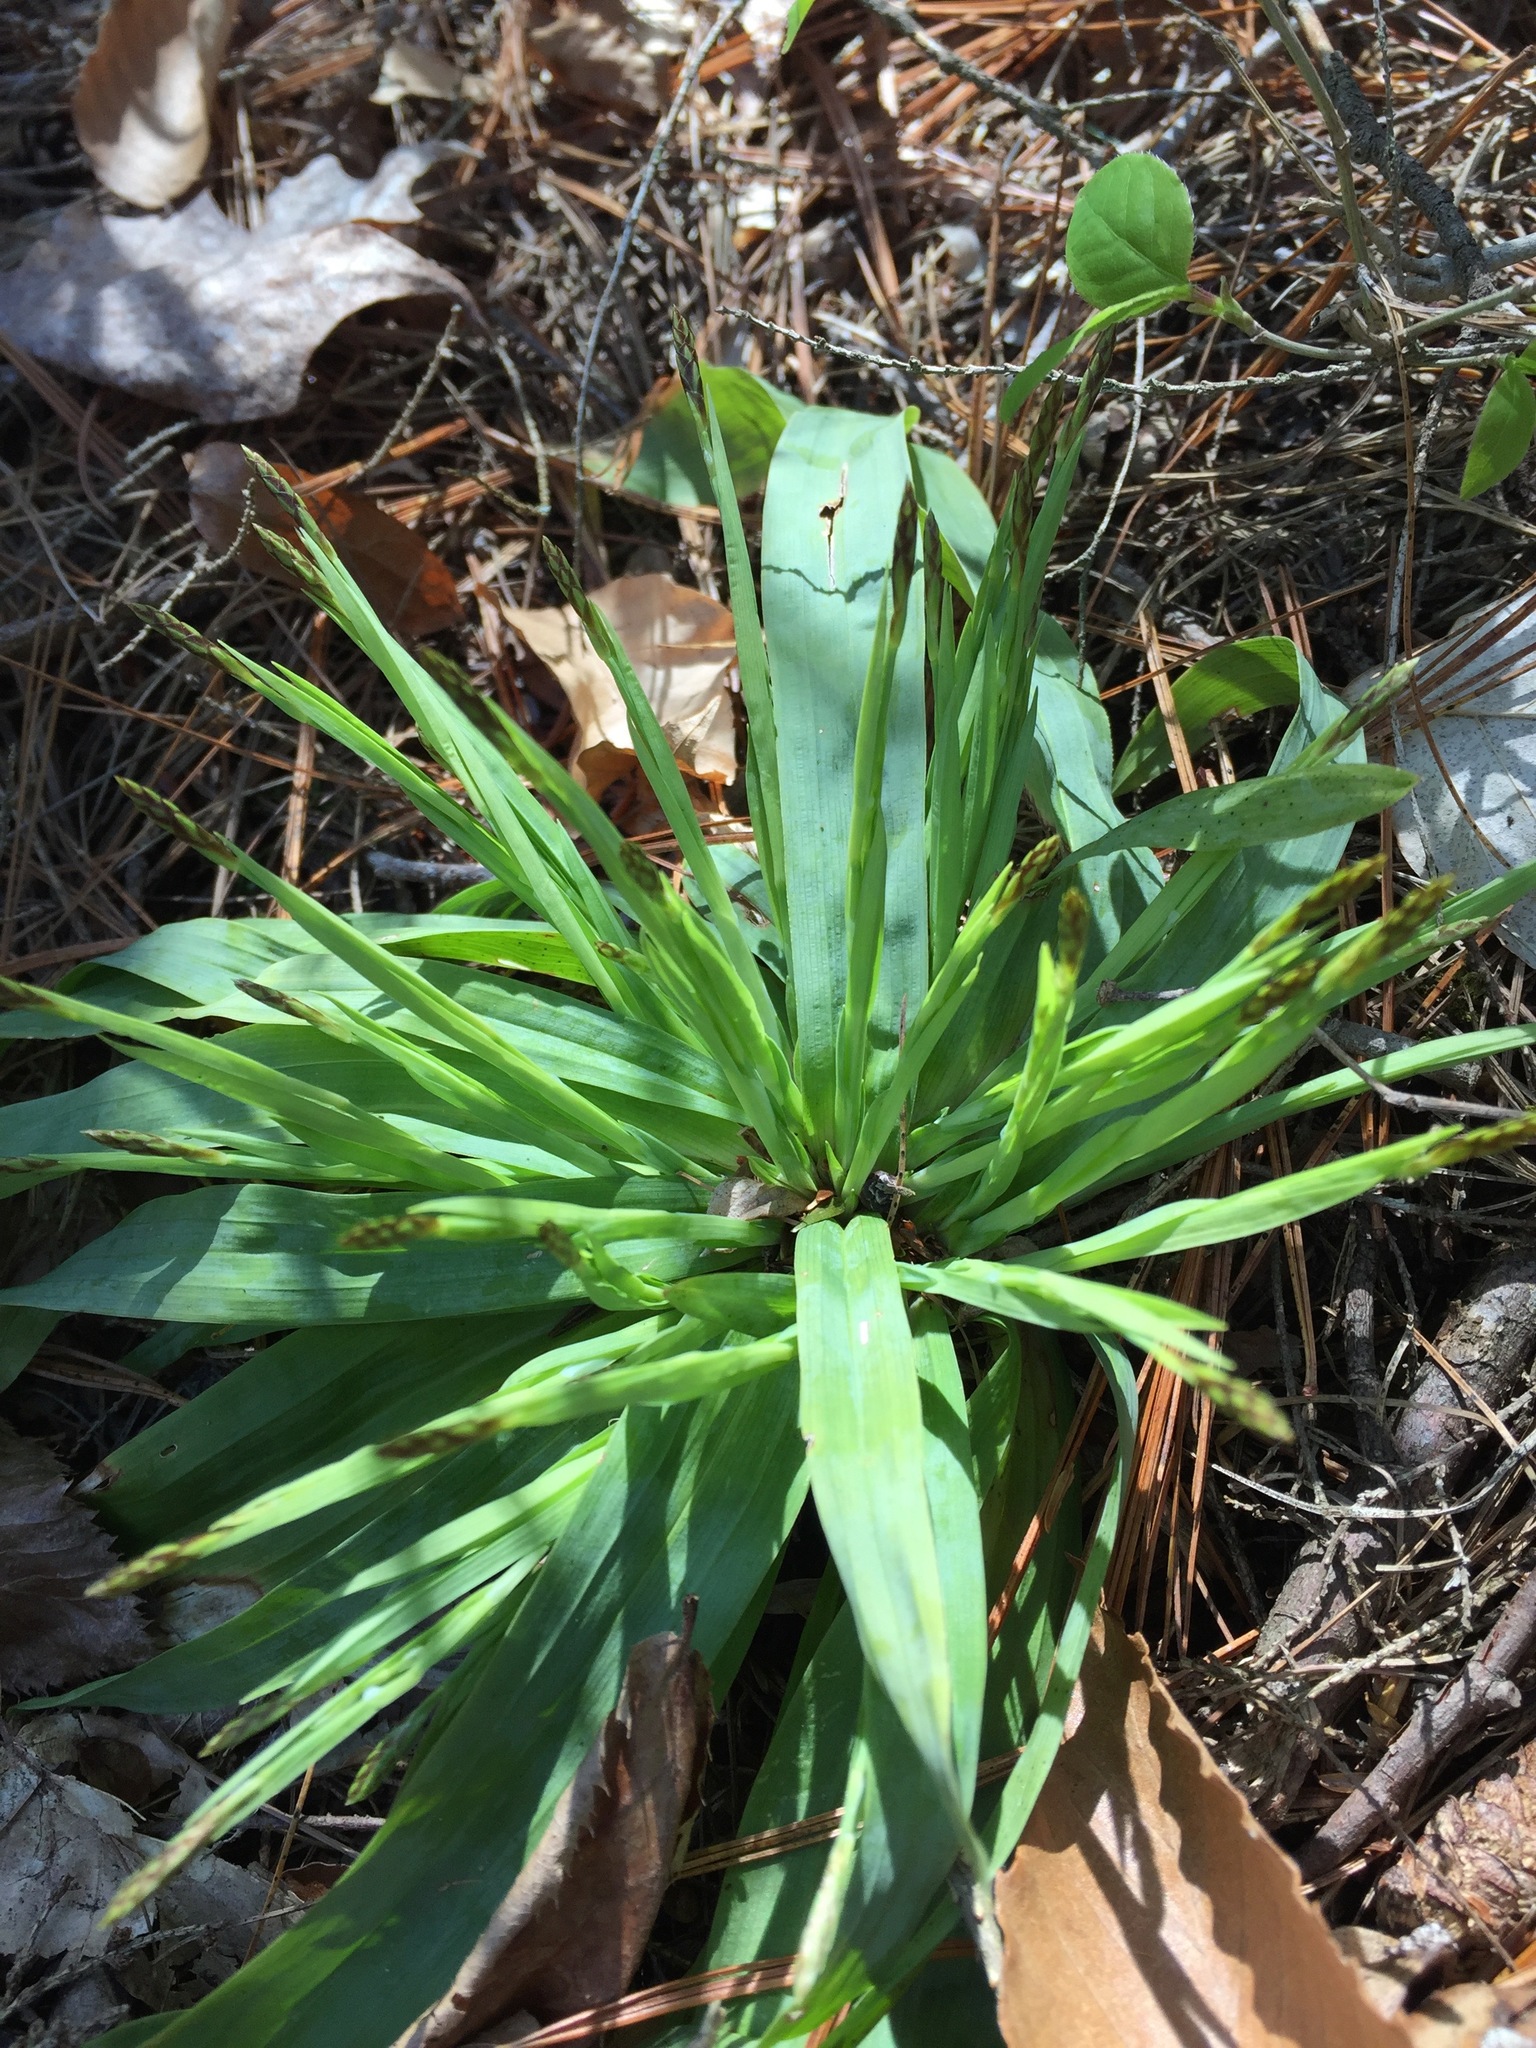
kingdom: Plantae
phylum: Tracheophyta
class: Liliopsida
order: Poales
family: Cyperaceae
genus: Carex
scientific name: Carex platyphylla
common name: Broad-leaved sedge
